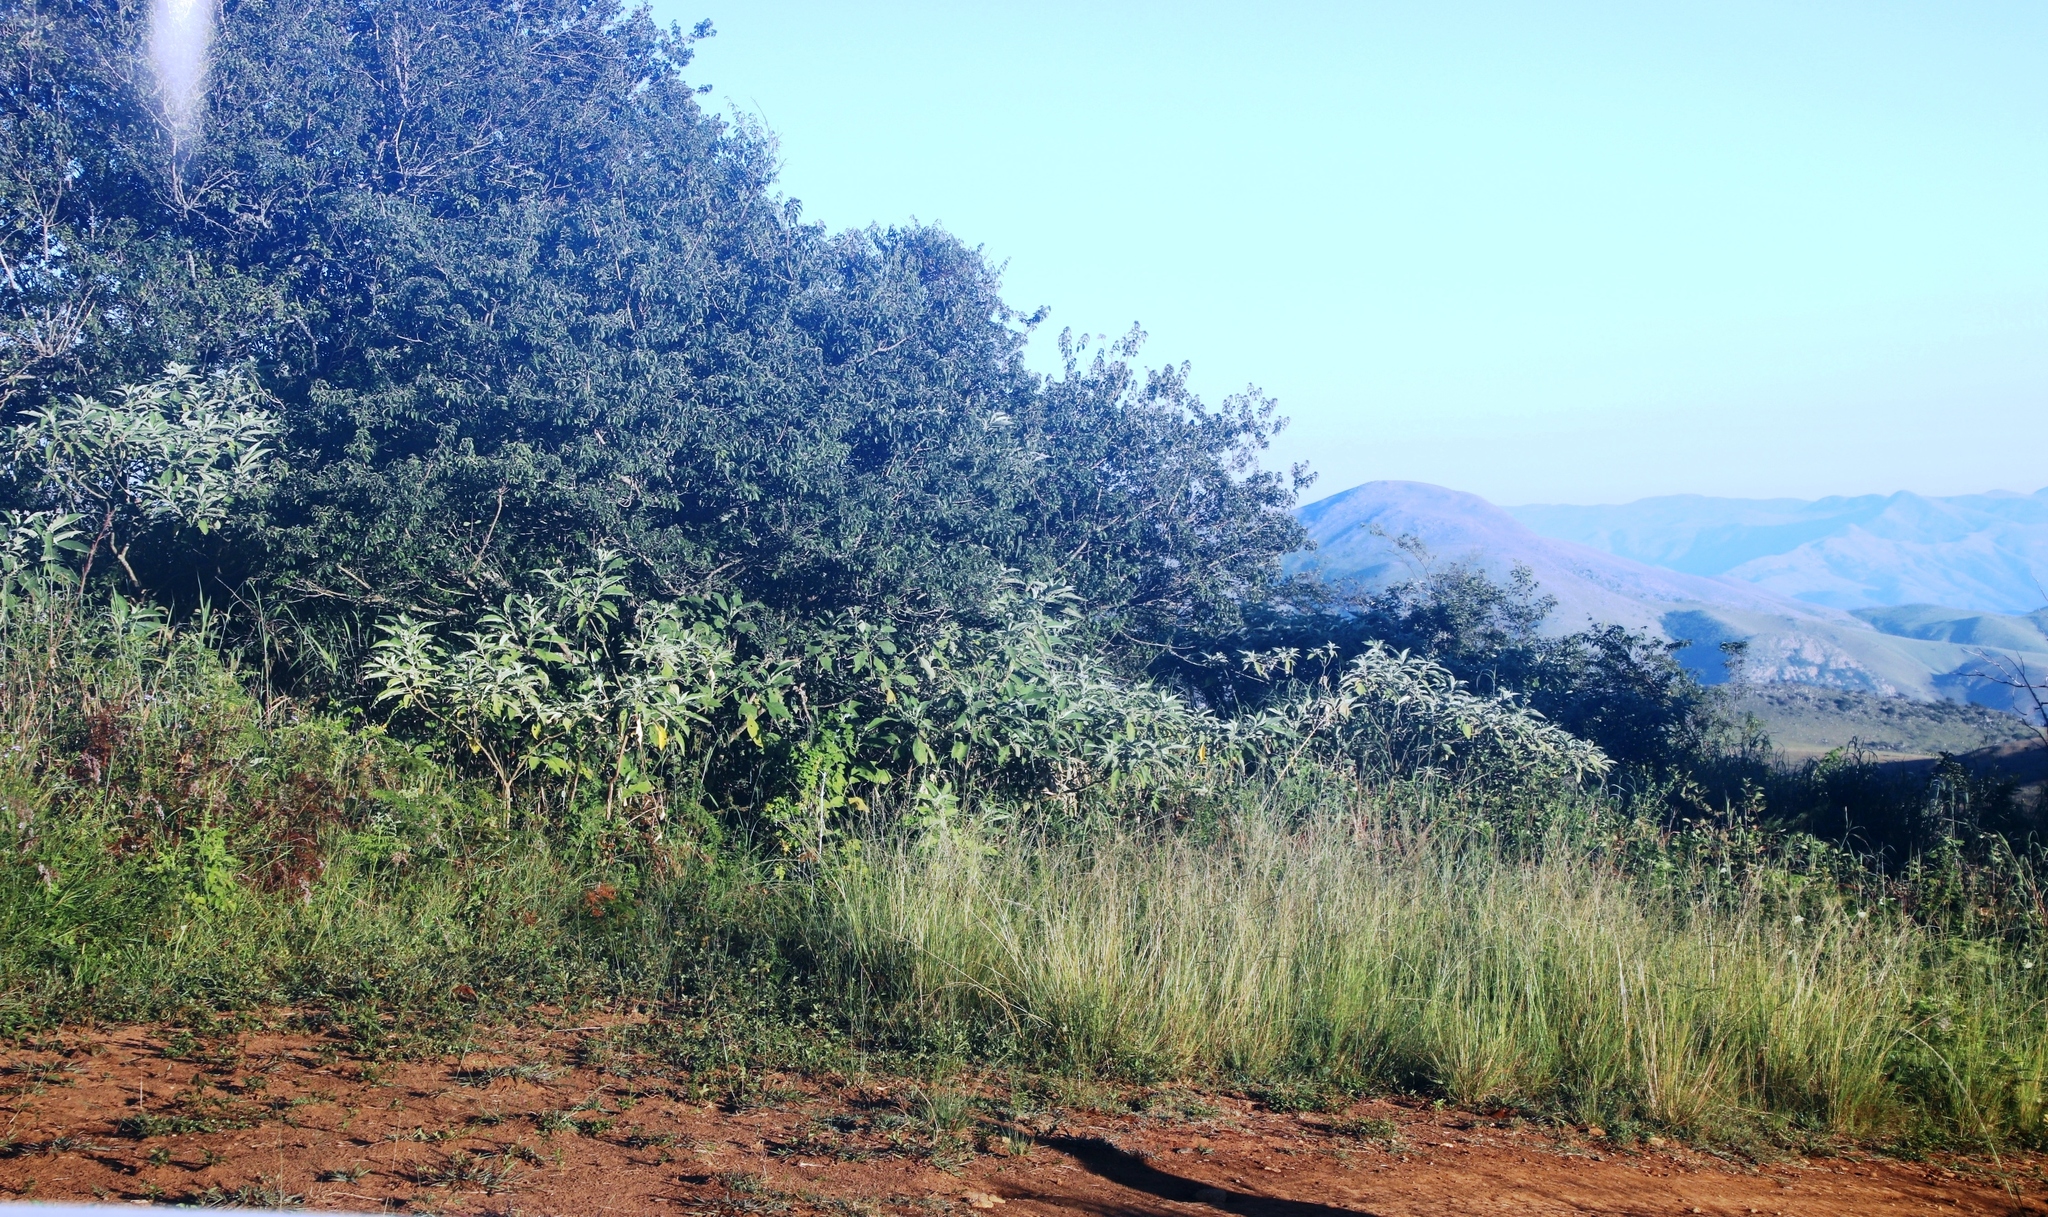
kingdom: Plantae
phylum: Tracheophyta
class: Magnoliopsida
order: Solanales
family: Solanaceae
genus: Solanum
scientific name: Solanum mauritianum
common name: Earleaf nightshade
